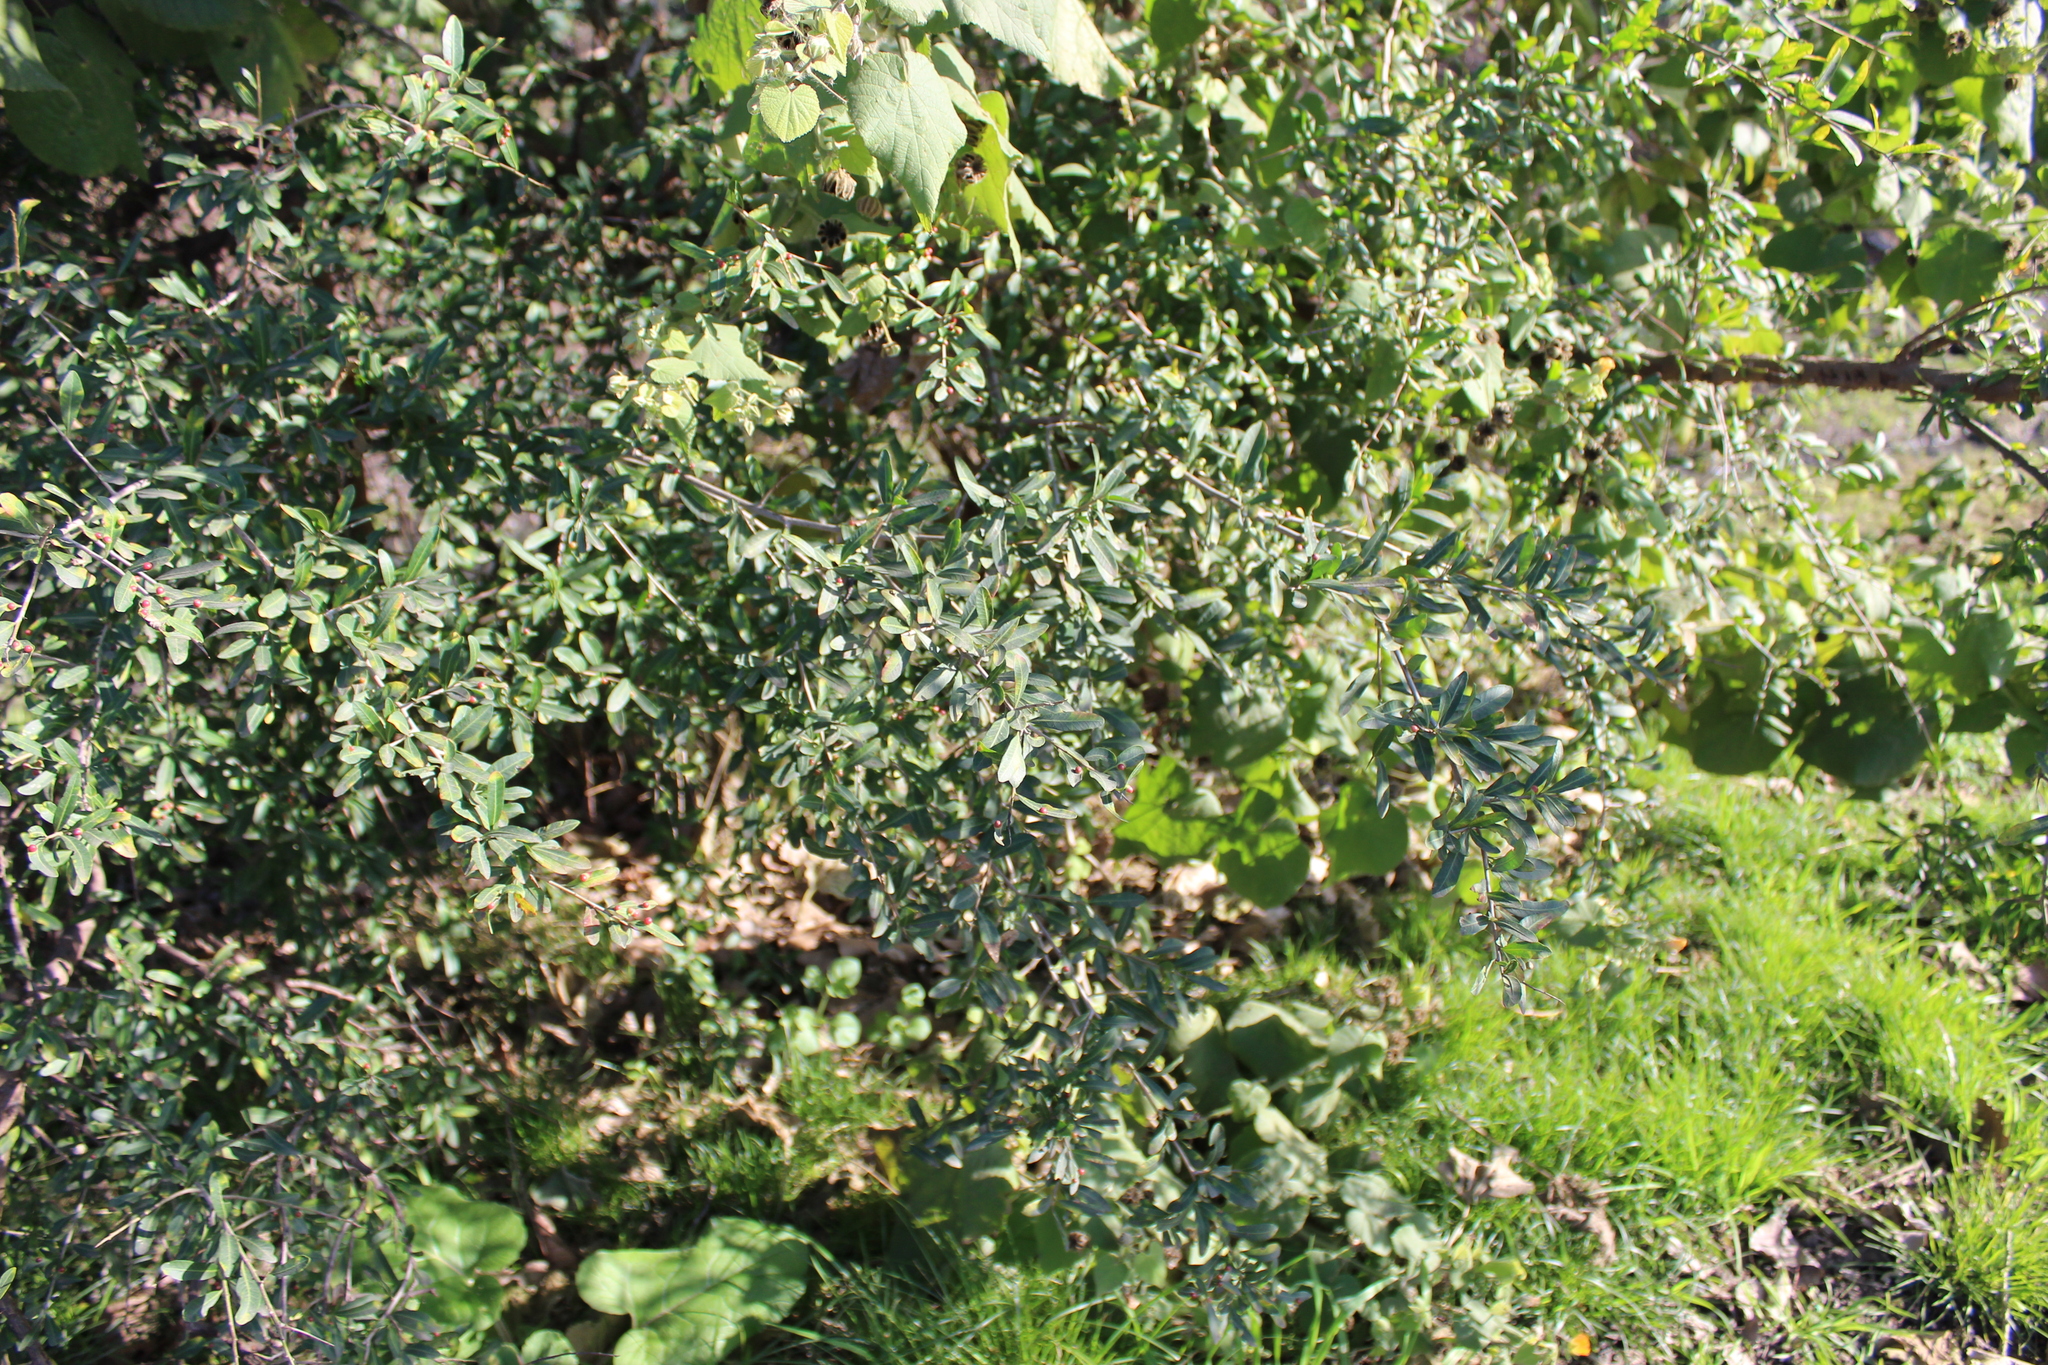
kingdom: Plantae
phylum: Tracheophyta
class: Magnoliopsida
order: Sapindales
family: Anacardiaceae
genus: Schinus
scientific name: Schinus longifolia
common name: Longleaf peppertree
